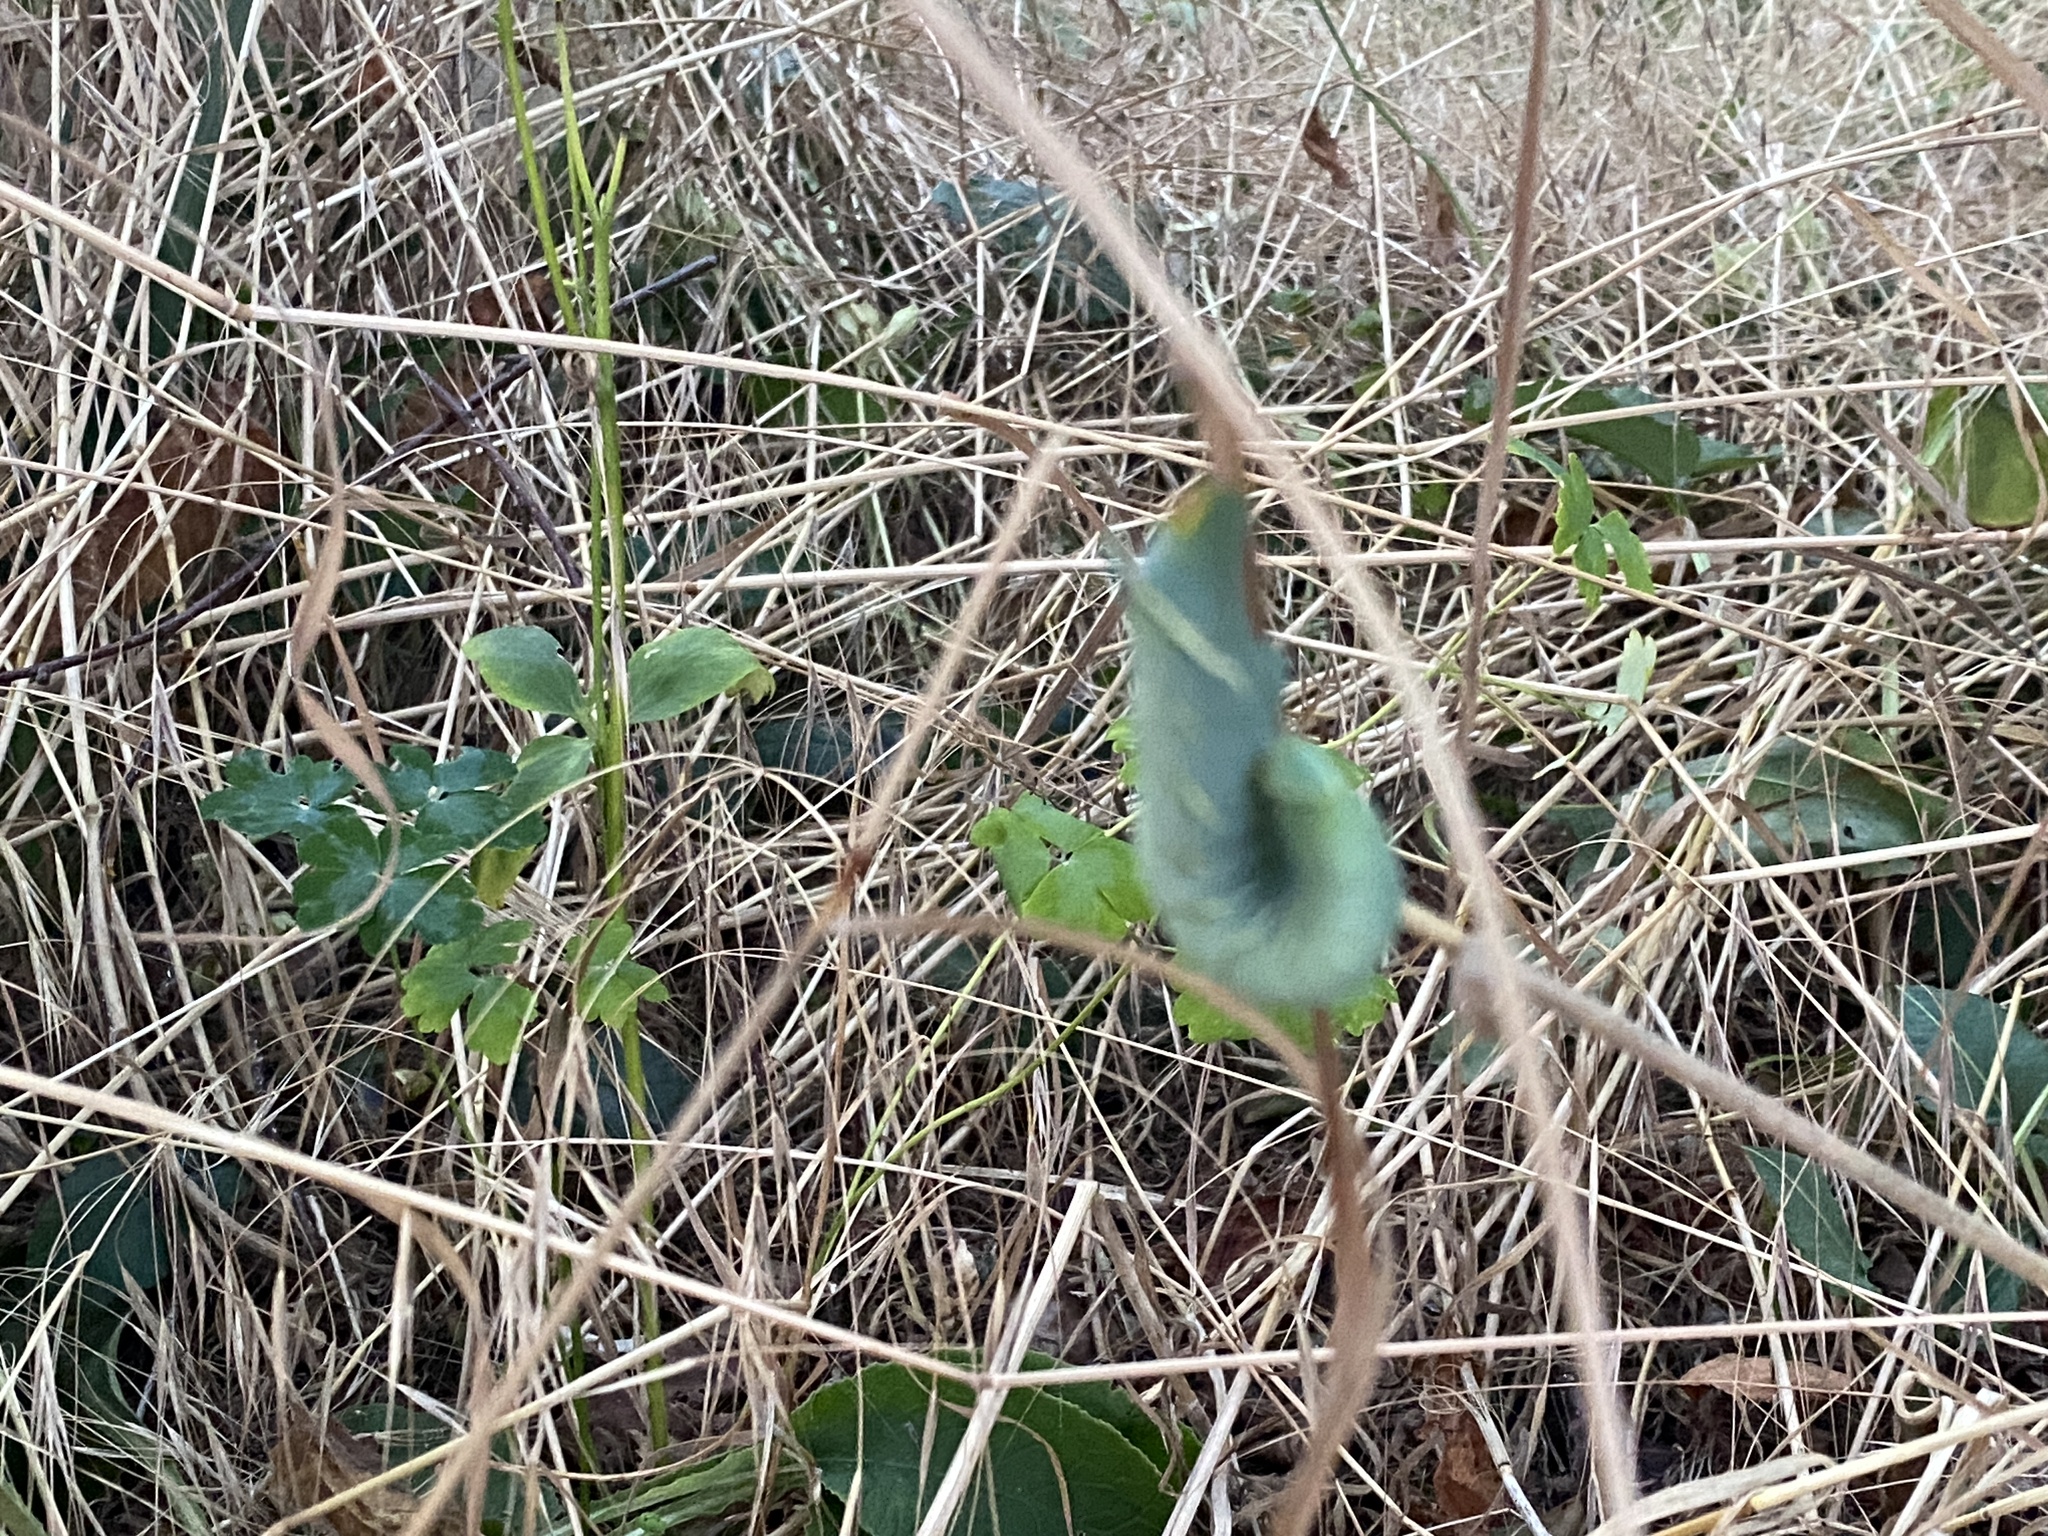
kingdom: Animalia
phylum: Arthropoda
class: Insecta
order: Lepidoptera
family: Sphingidae
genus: Mimas
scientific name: Mimas tiliae
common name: Lime hawk-moth
